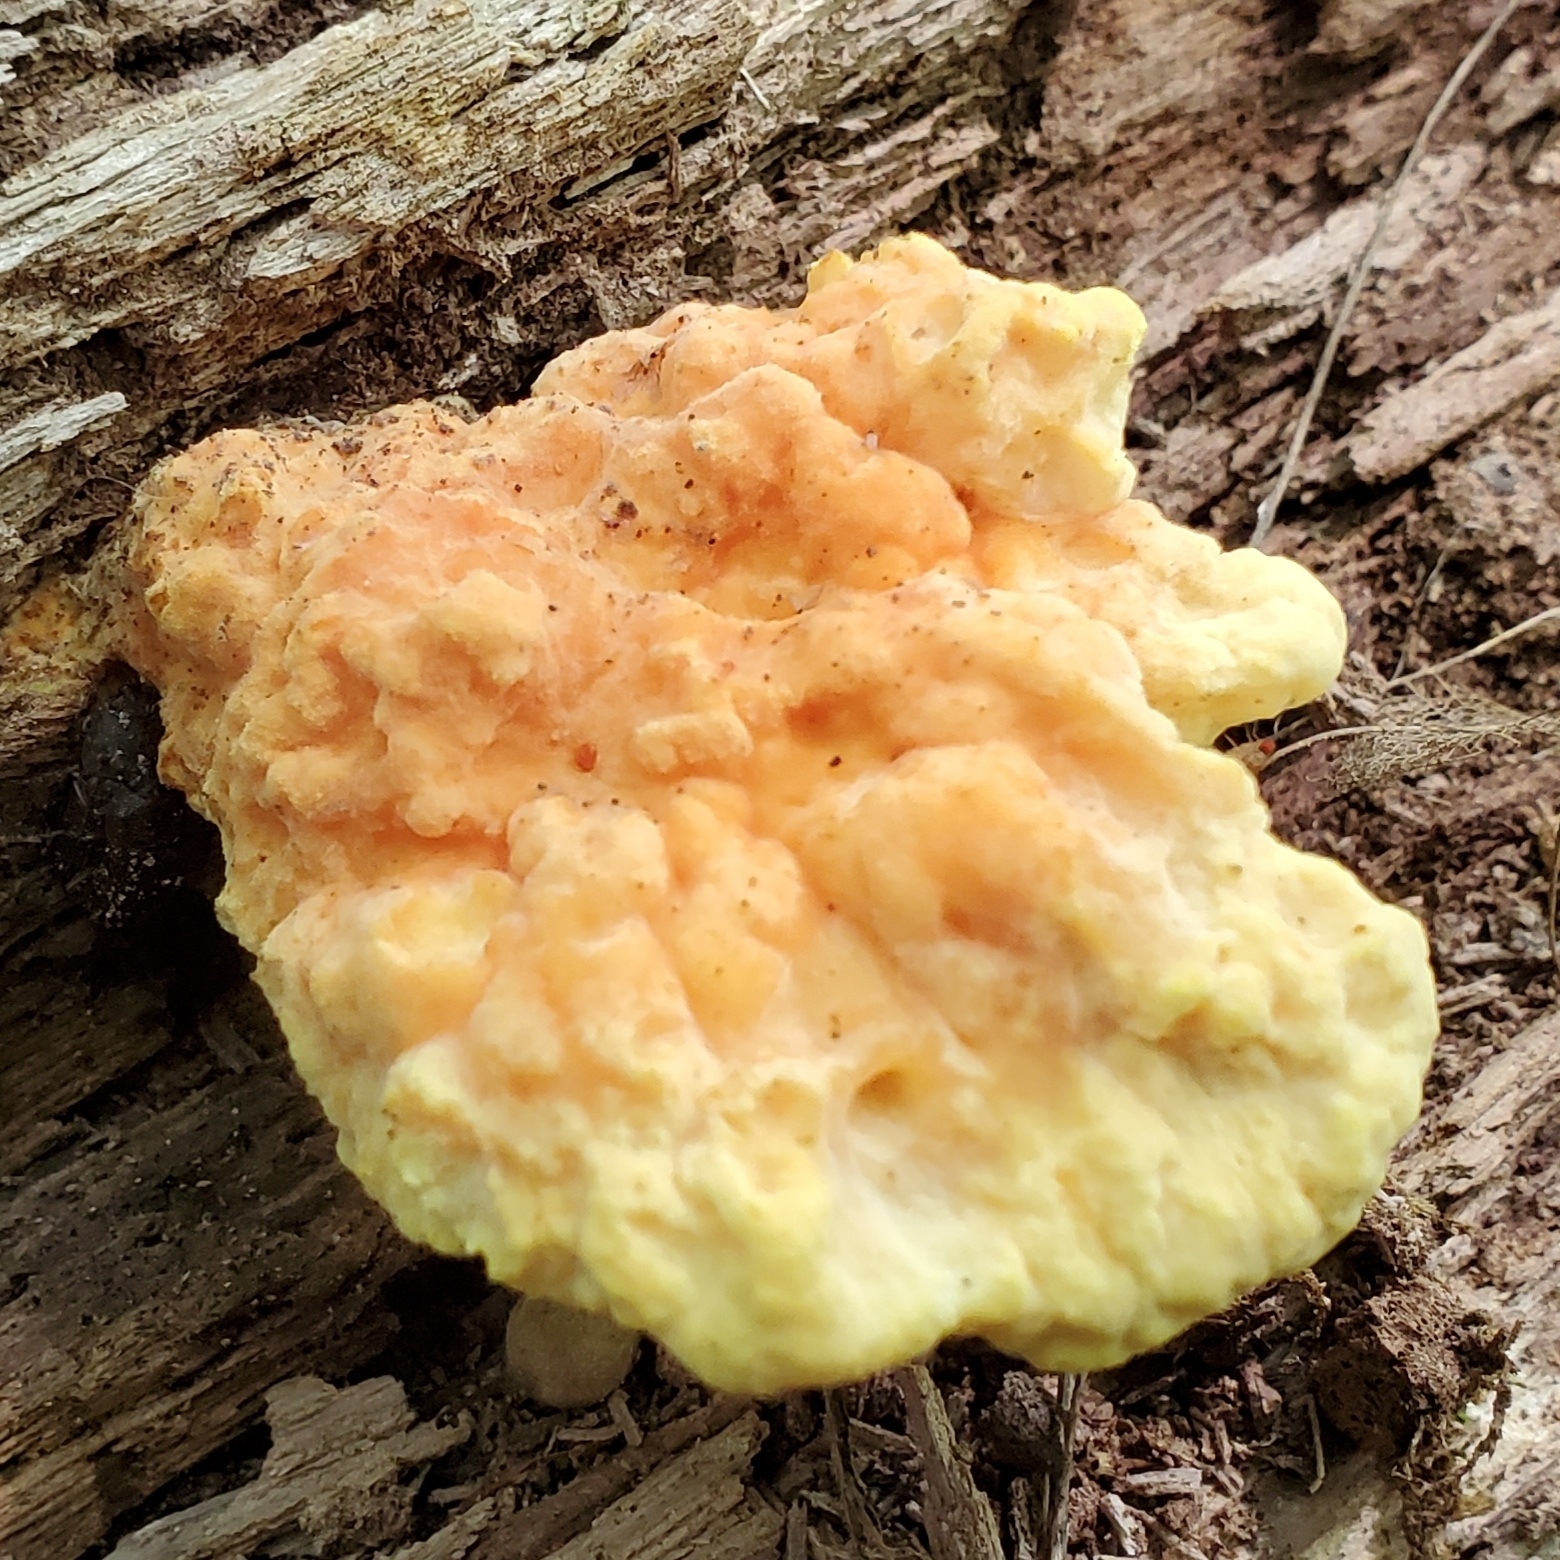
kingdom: Fungi
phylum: Basidiomycota
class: Agaricomycetes
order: Polyporales
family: Laetiporaceae
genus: Laetiporus
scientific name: Laetiporus sulphureus
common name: Chicken of the woods
